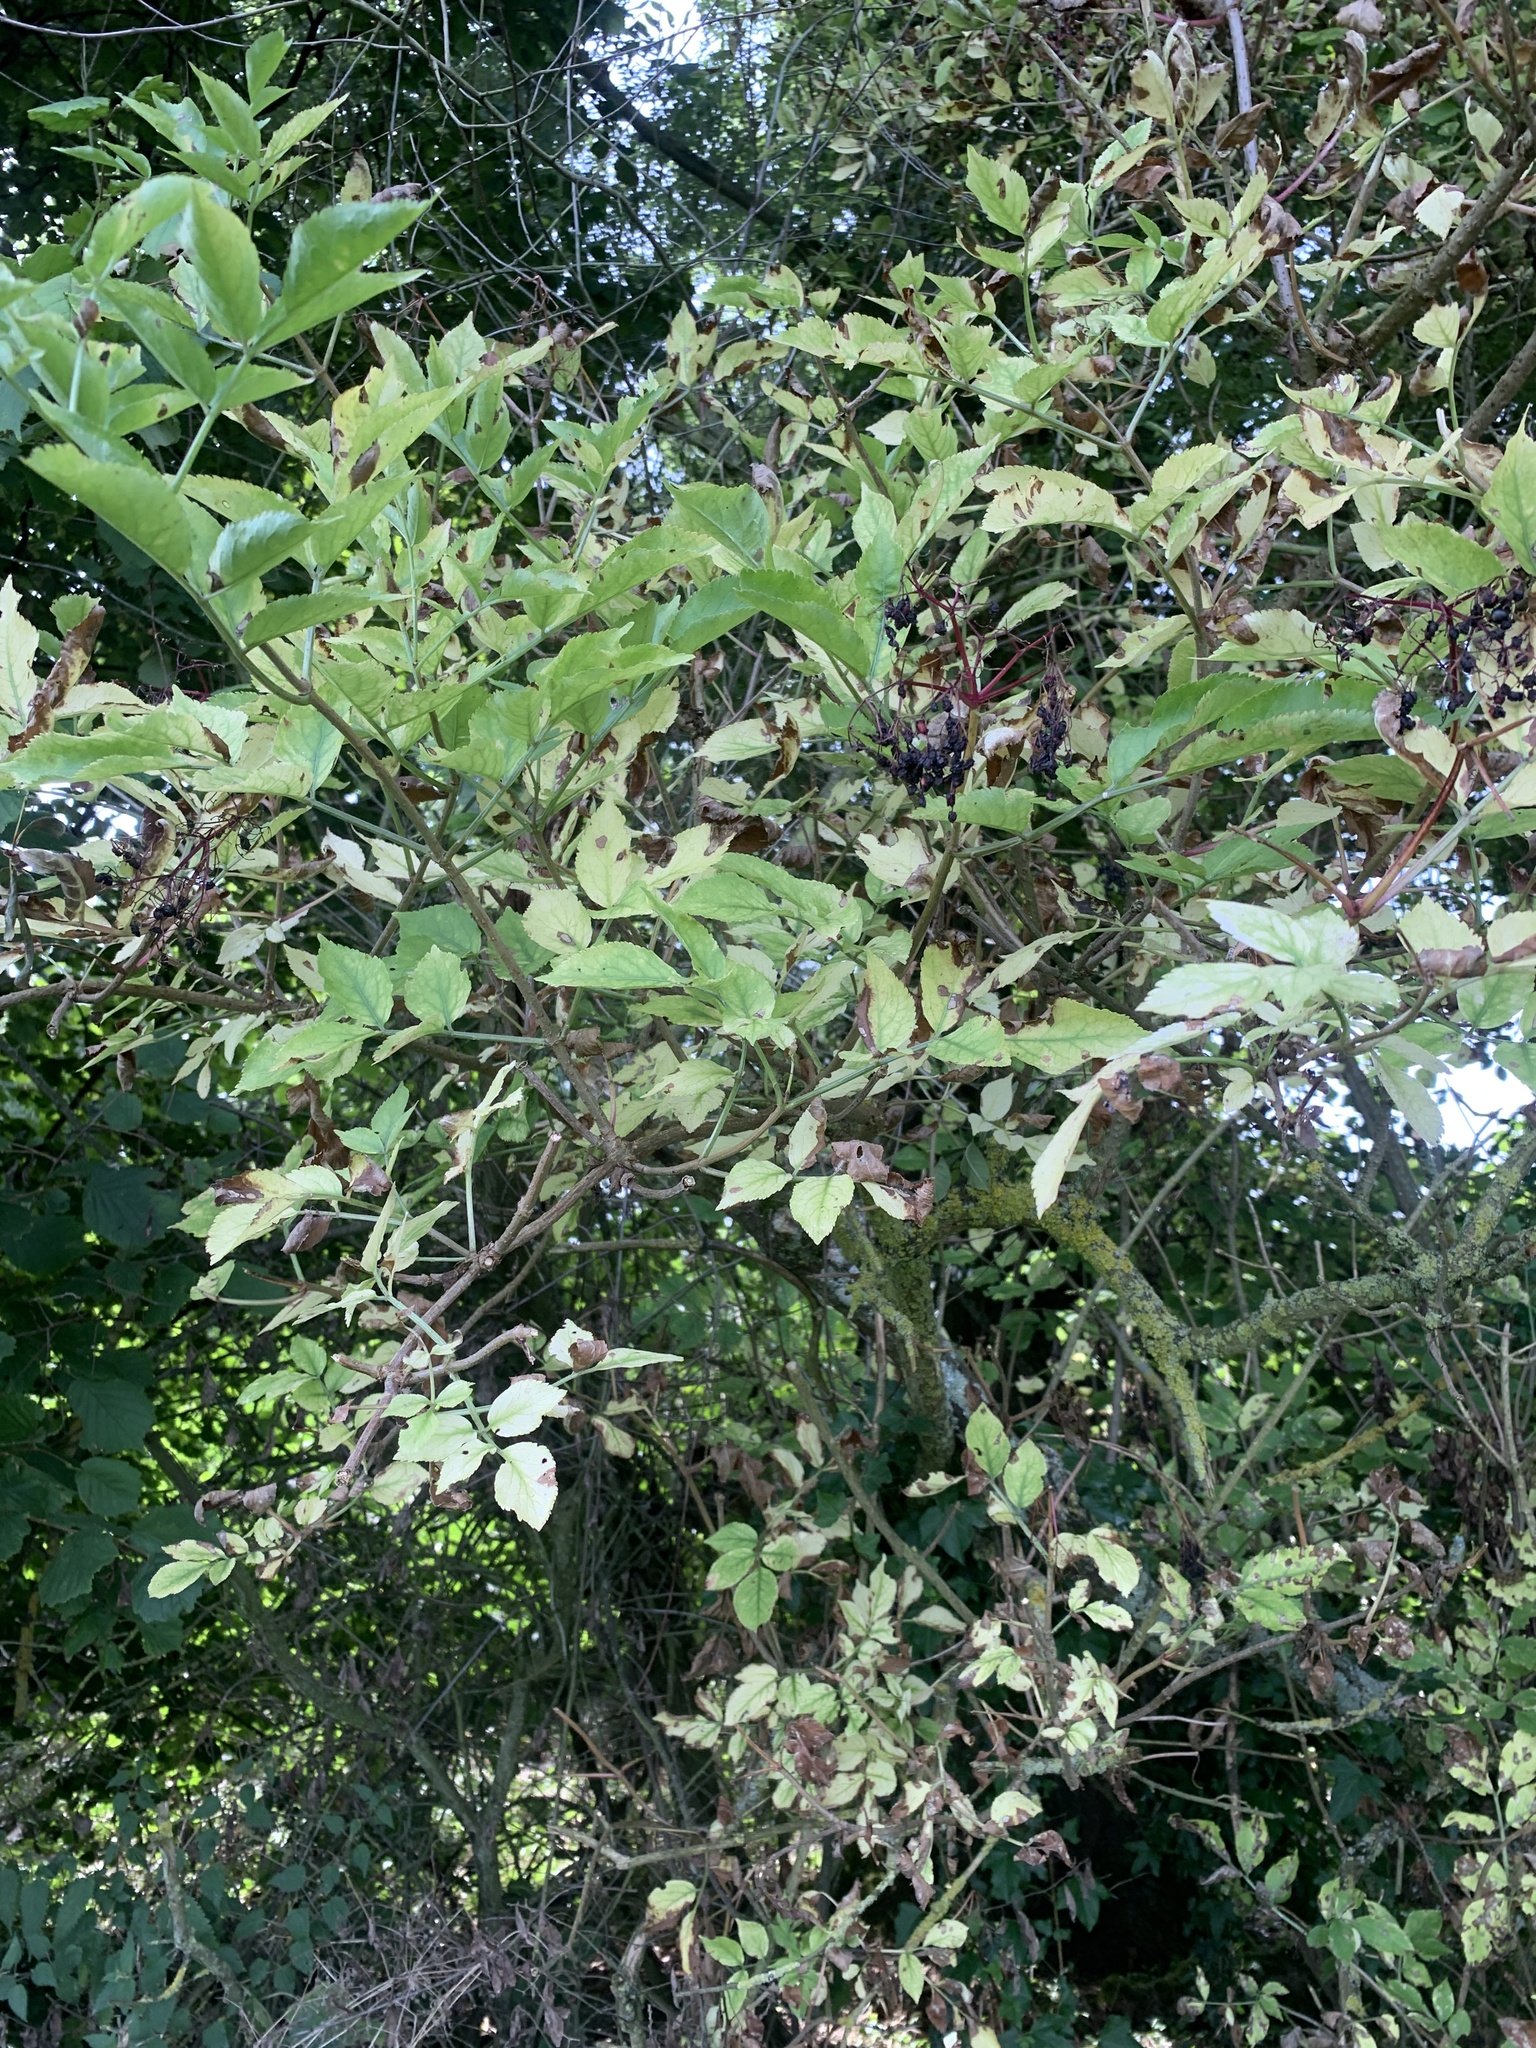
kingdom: Plantae
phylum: Tracheophyta
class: Magnoliopsida
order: Dipsacales
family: Viburnaceae
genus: Sambucus
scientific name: Sambucus nigra
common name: Elder
